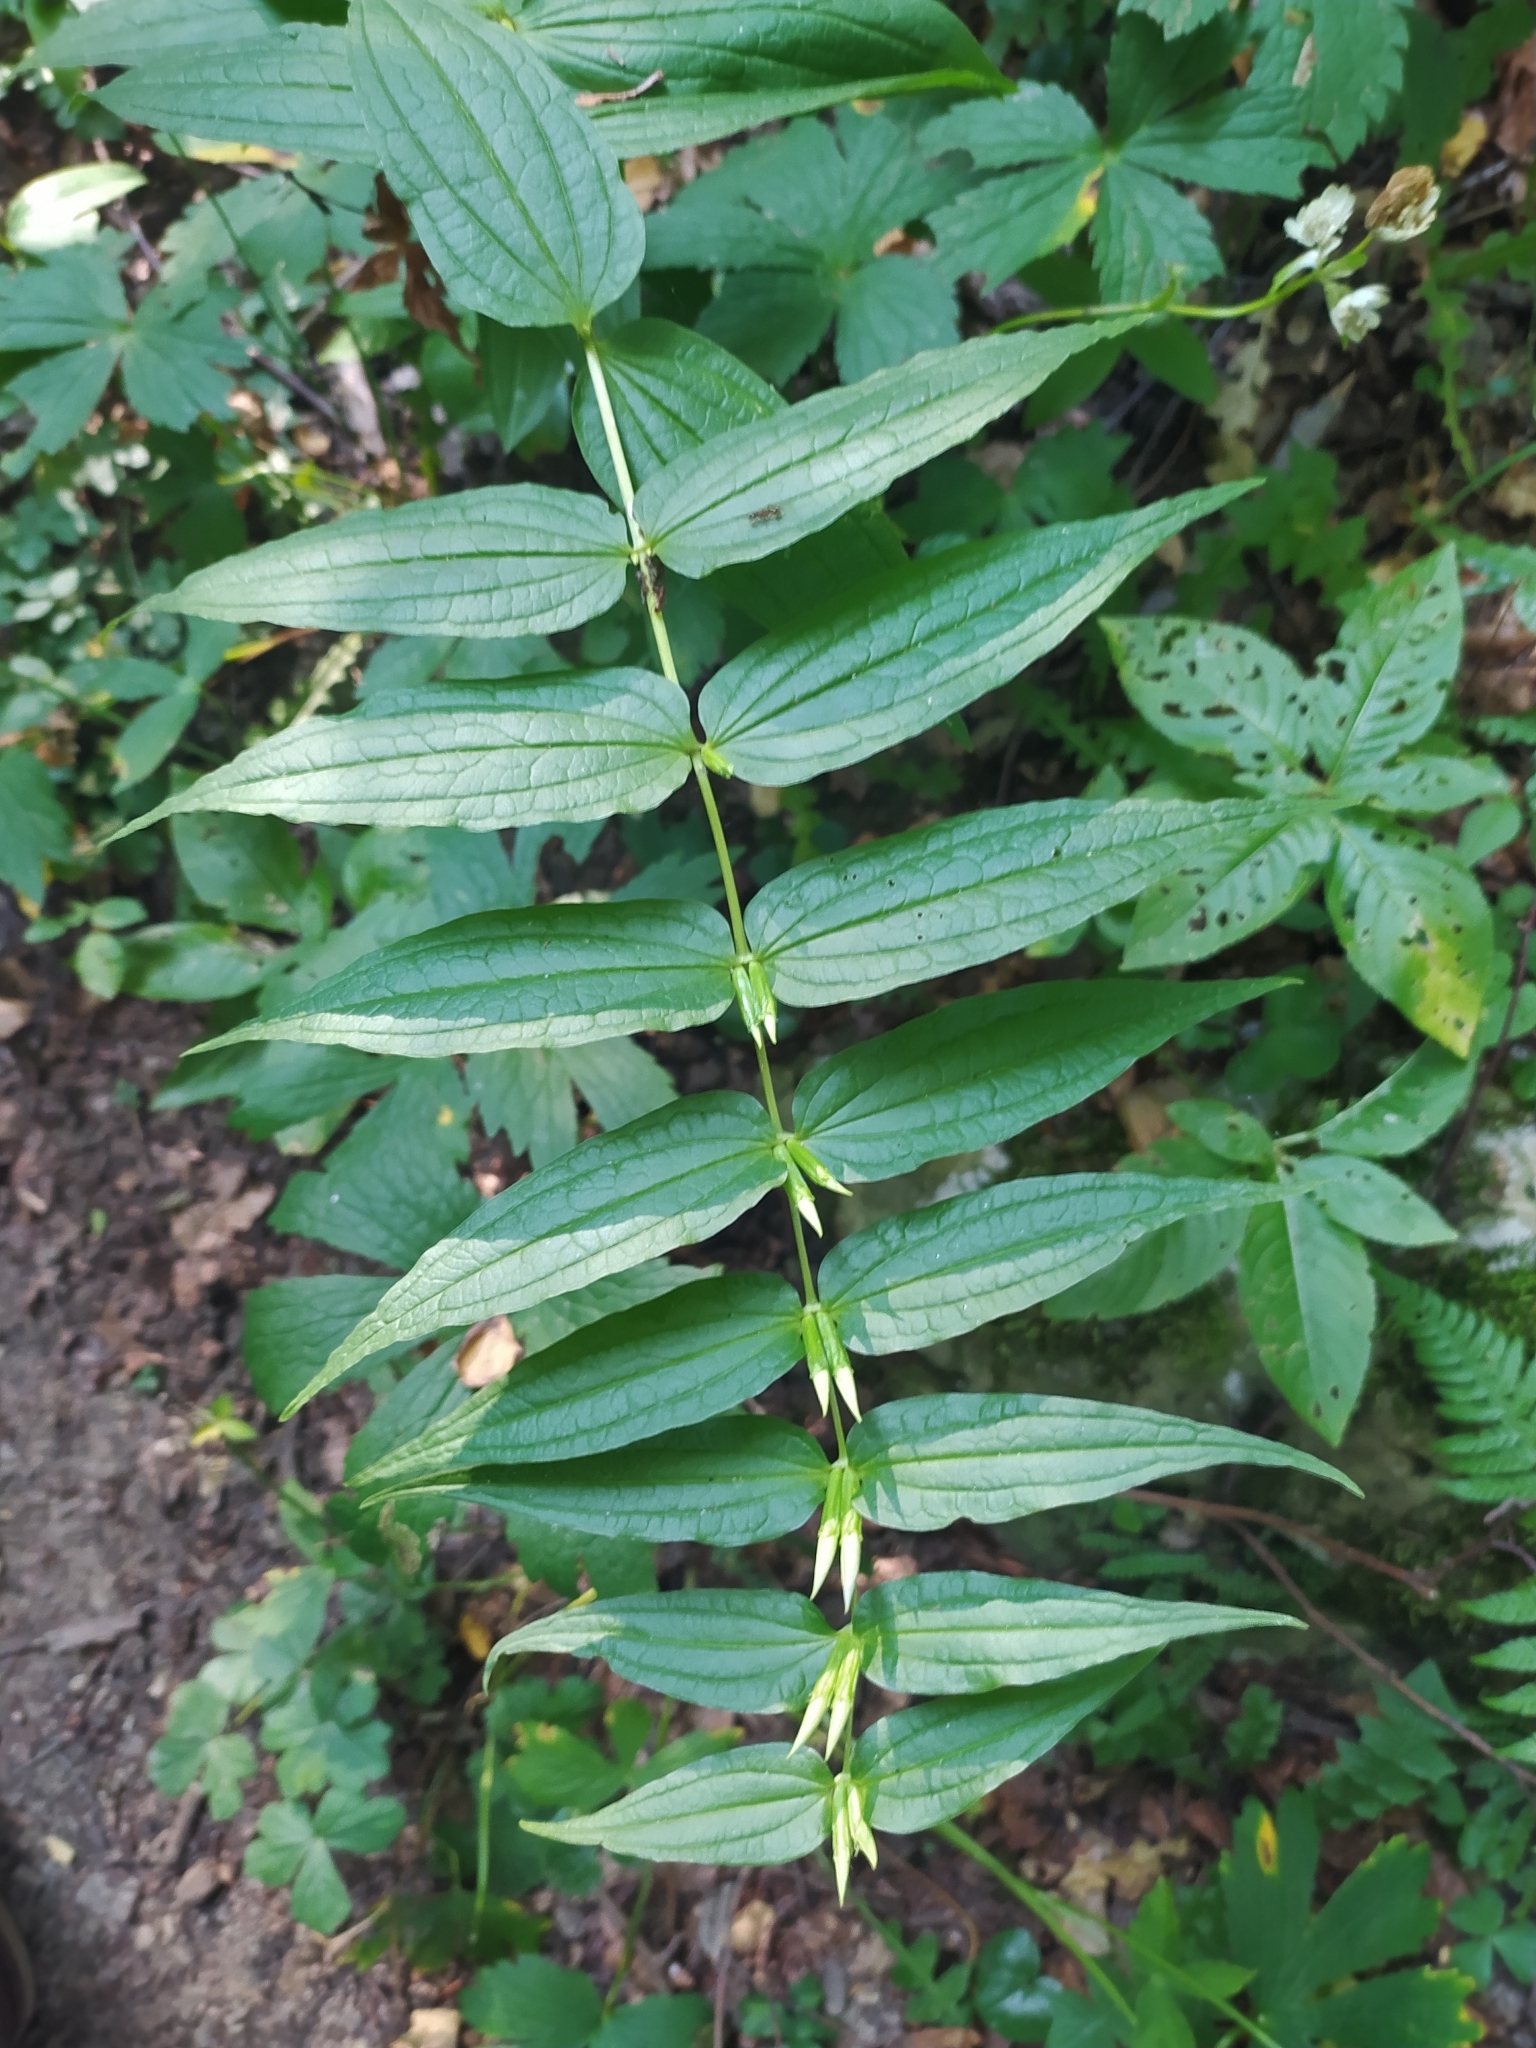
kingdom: Plantae
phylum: Tracheophyta
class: Magnoliopsida
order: Gentianales
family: Gentianaceae
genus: Gentiana
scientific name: Gentiana asclepiadea
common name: Willow gentian
